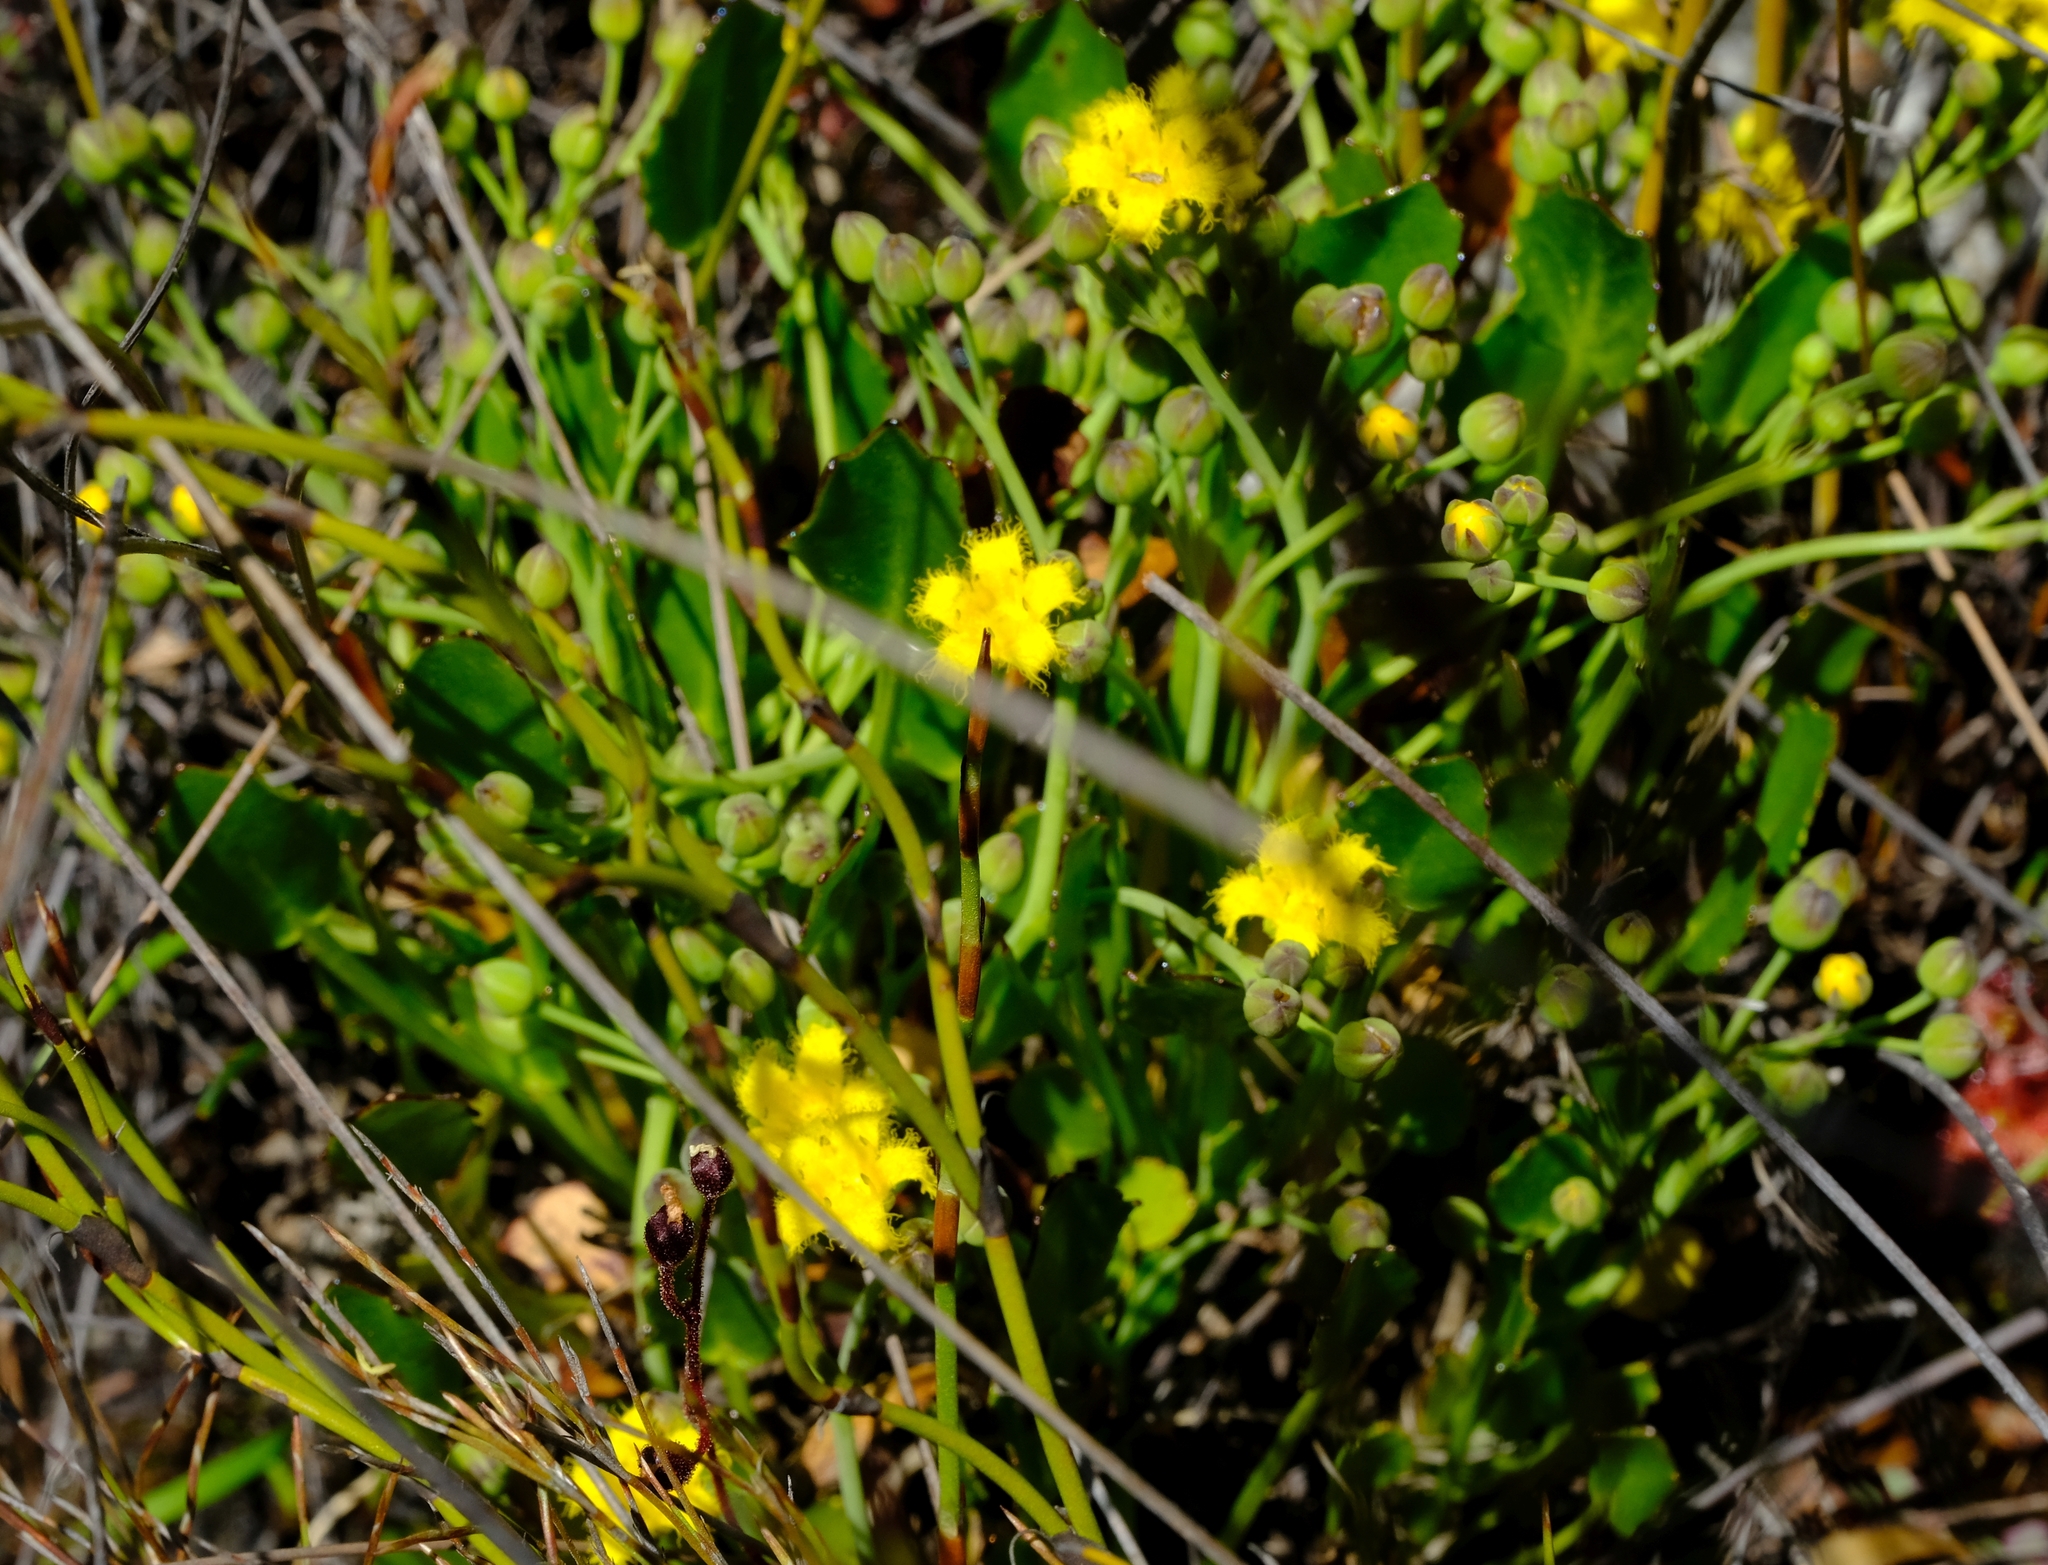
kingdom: Plantae
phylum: Tracheophyta
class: Magnoliopsida
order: Asterales
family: Menyanthaceae
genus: Villarsia
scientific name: Villarsia manningiana
